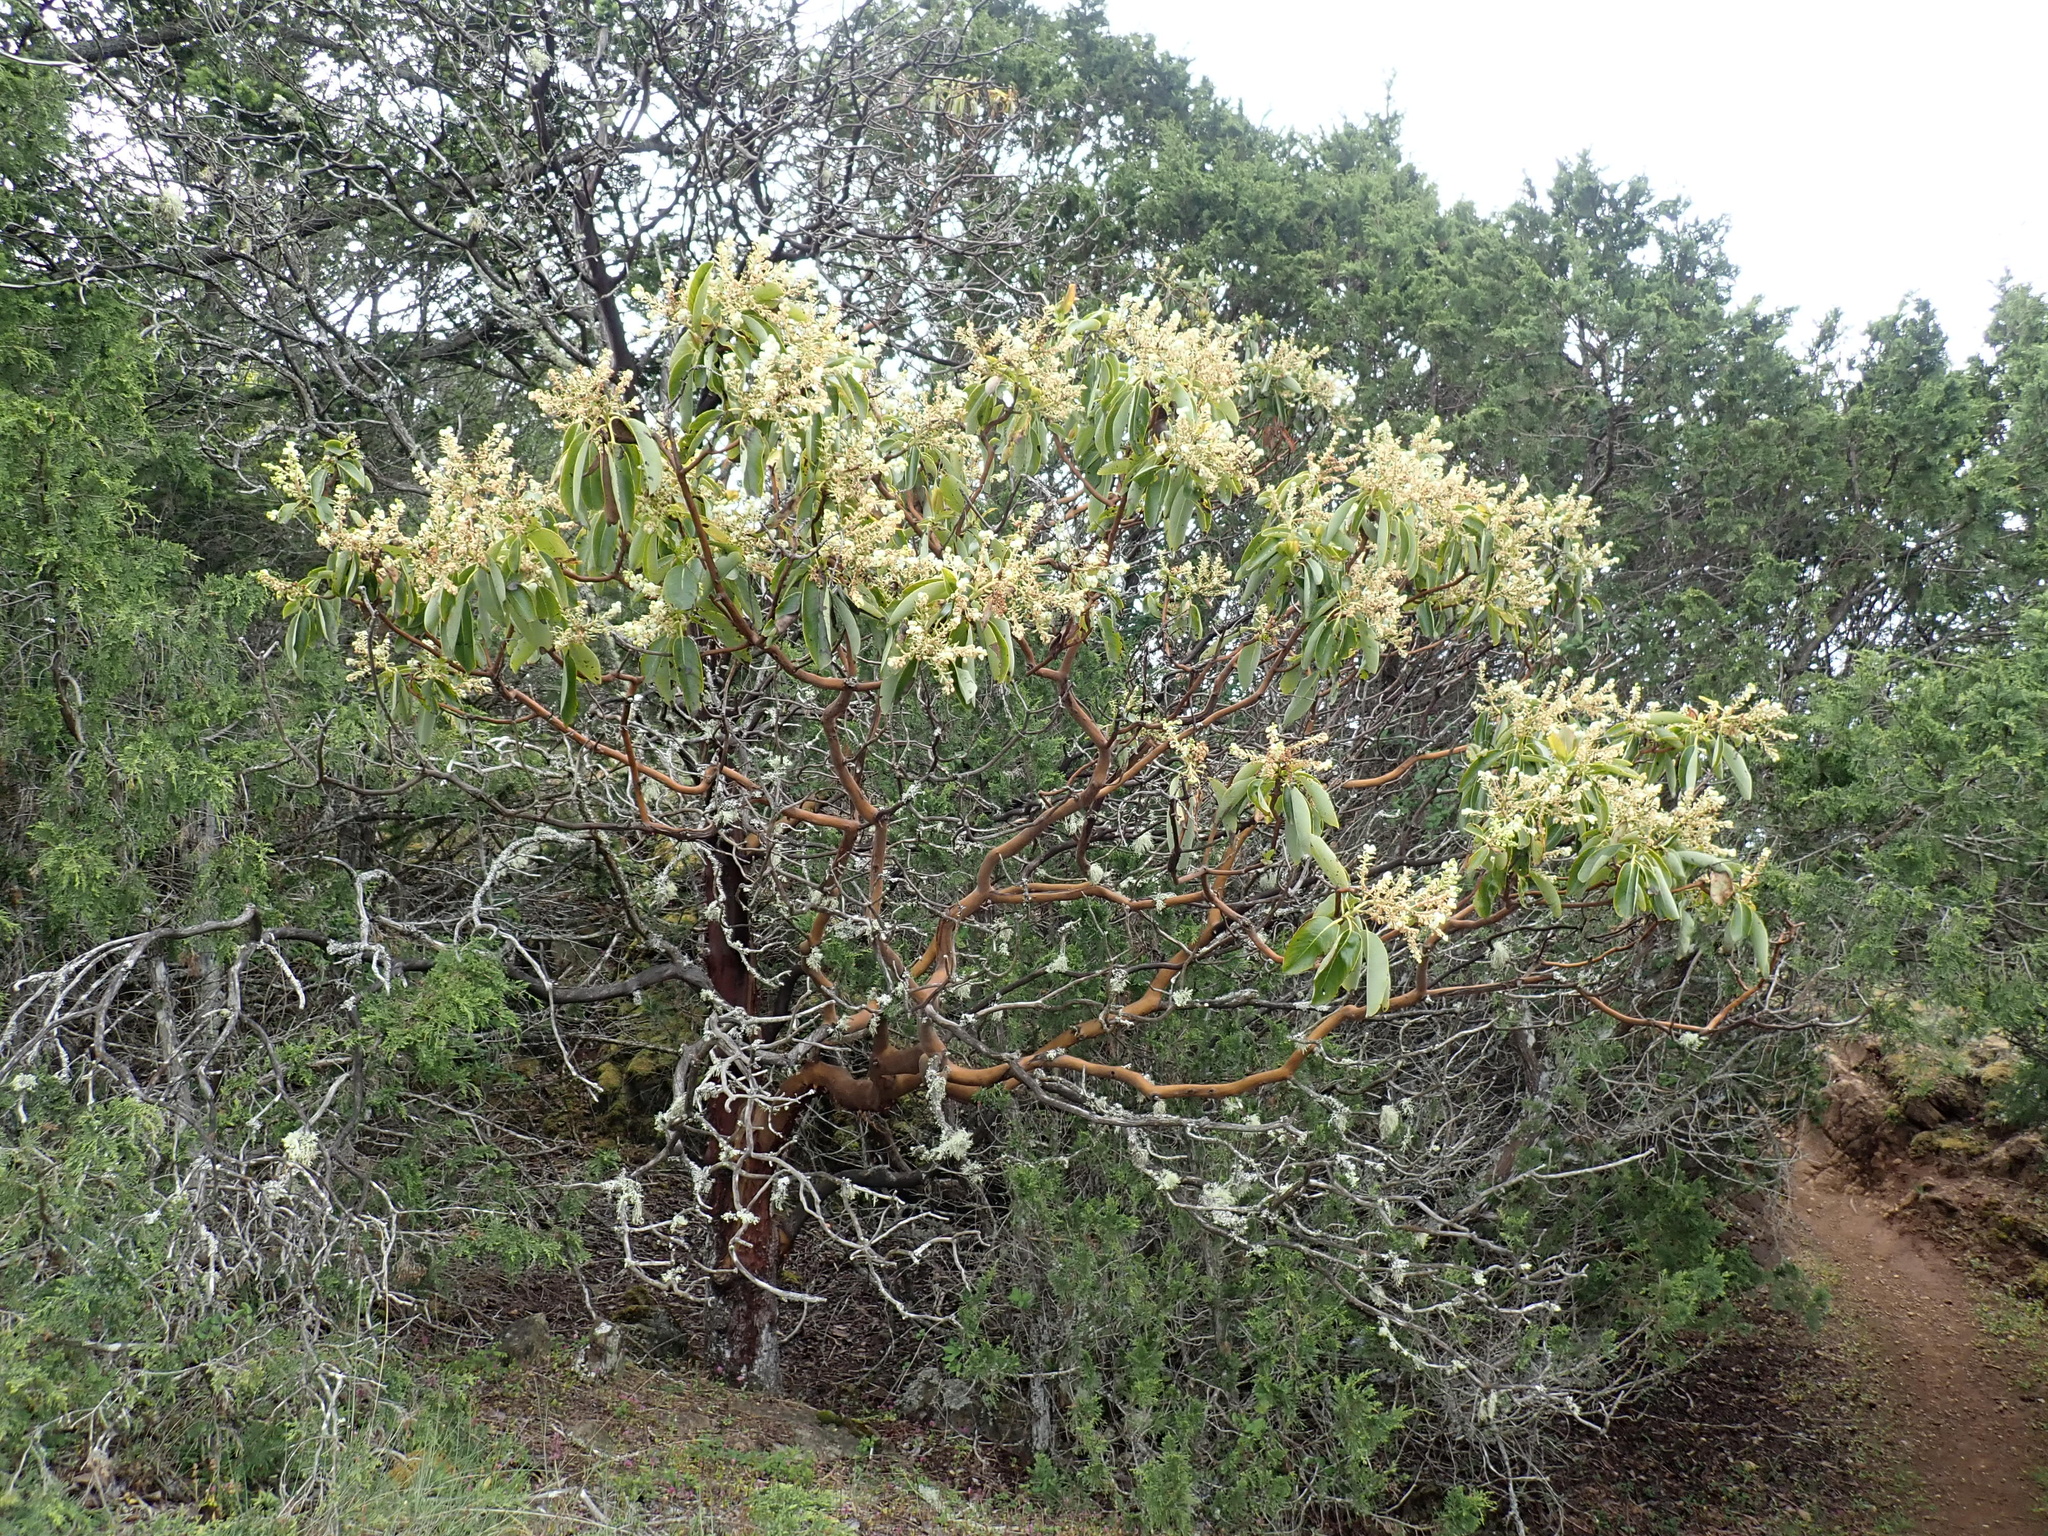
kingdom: Plantae
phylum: Tracheophyta
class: Magnoliopsida
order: Ericales
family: Ericaceae
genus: Arbutus
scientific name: Arbutus menziesii
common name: Pacific madrone
